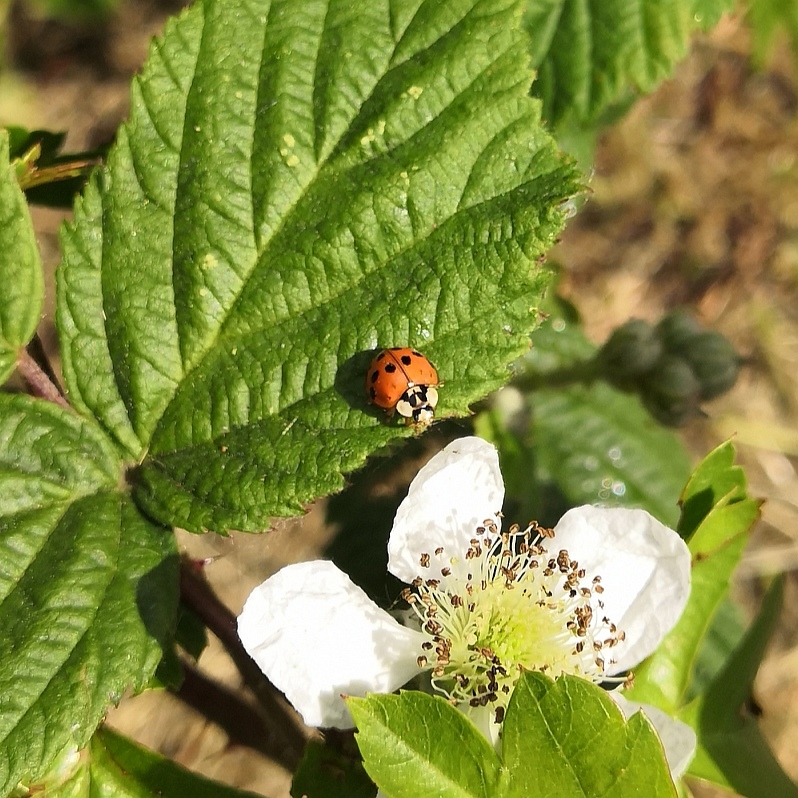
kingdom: Animalia
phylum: Arthropoda
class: Insecta
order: Coleoptera
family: Coccinellidae
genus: Harmonia
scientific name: Harmonia axyridis
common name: Harlequin ladybird
